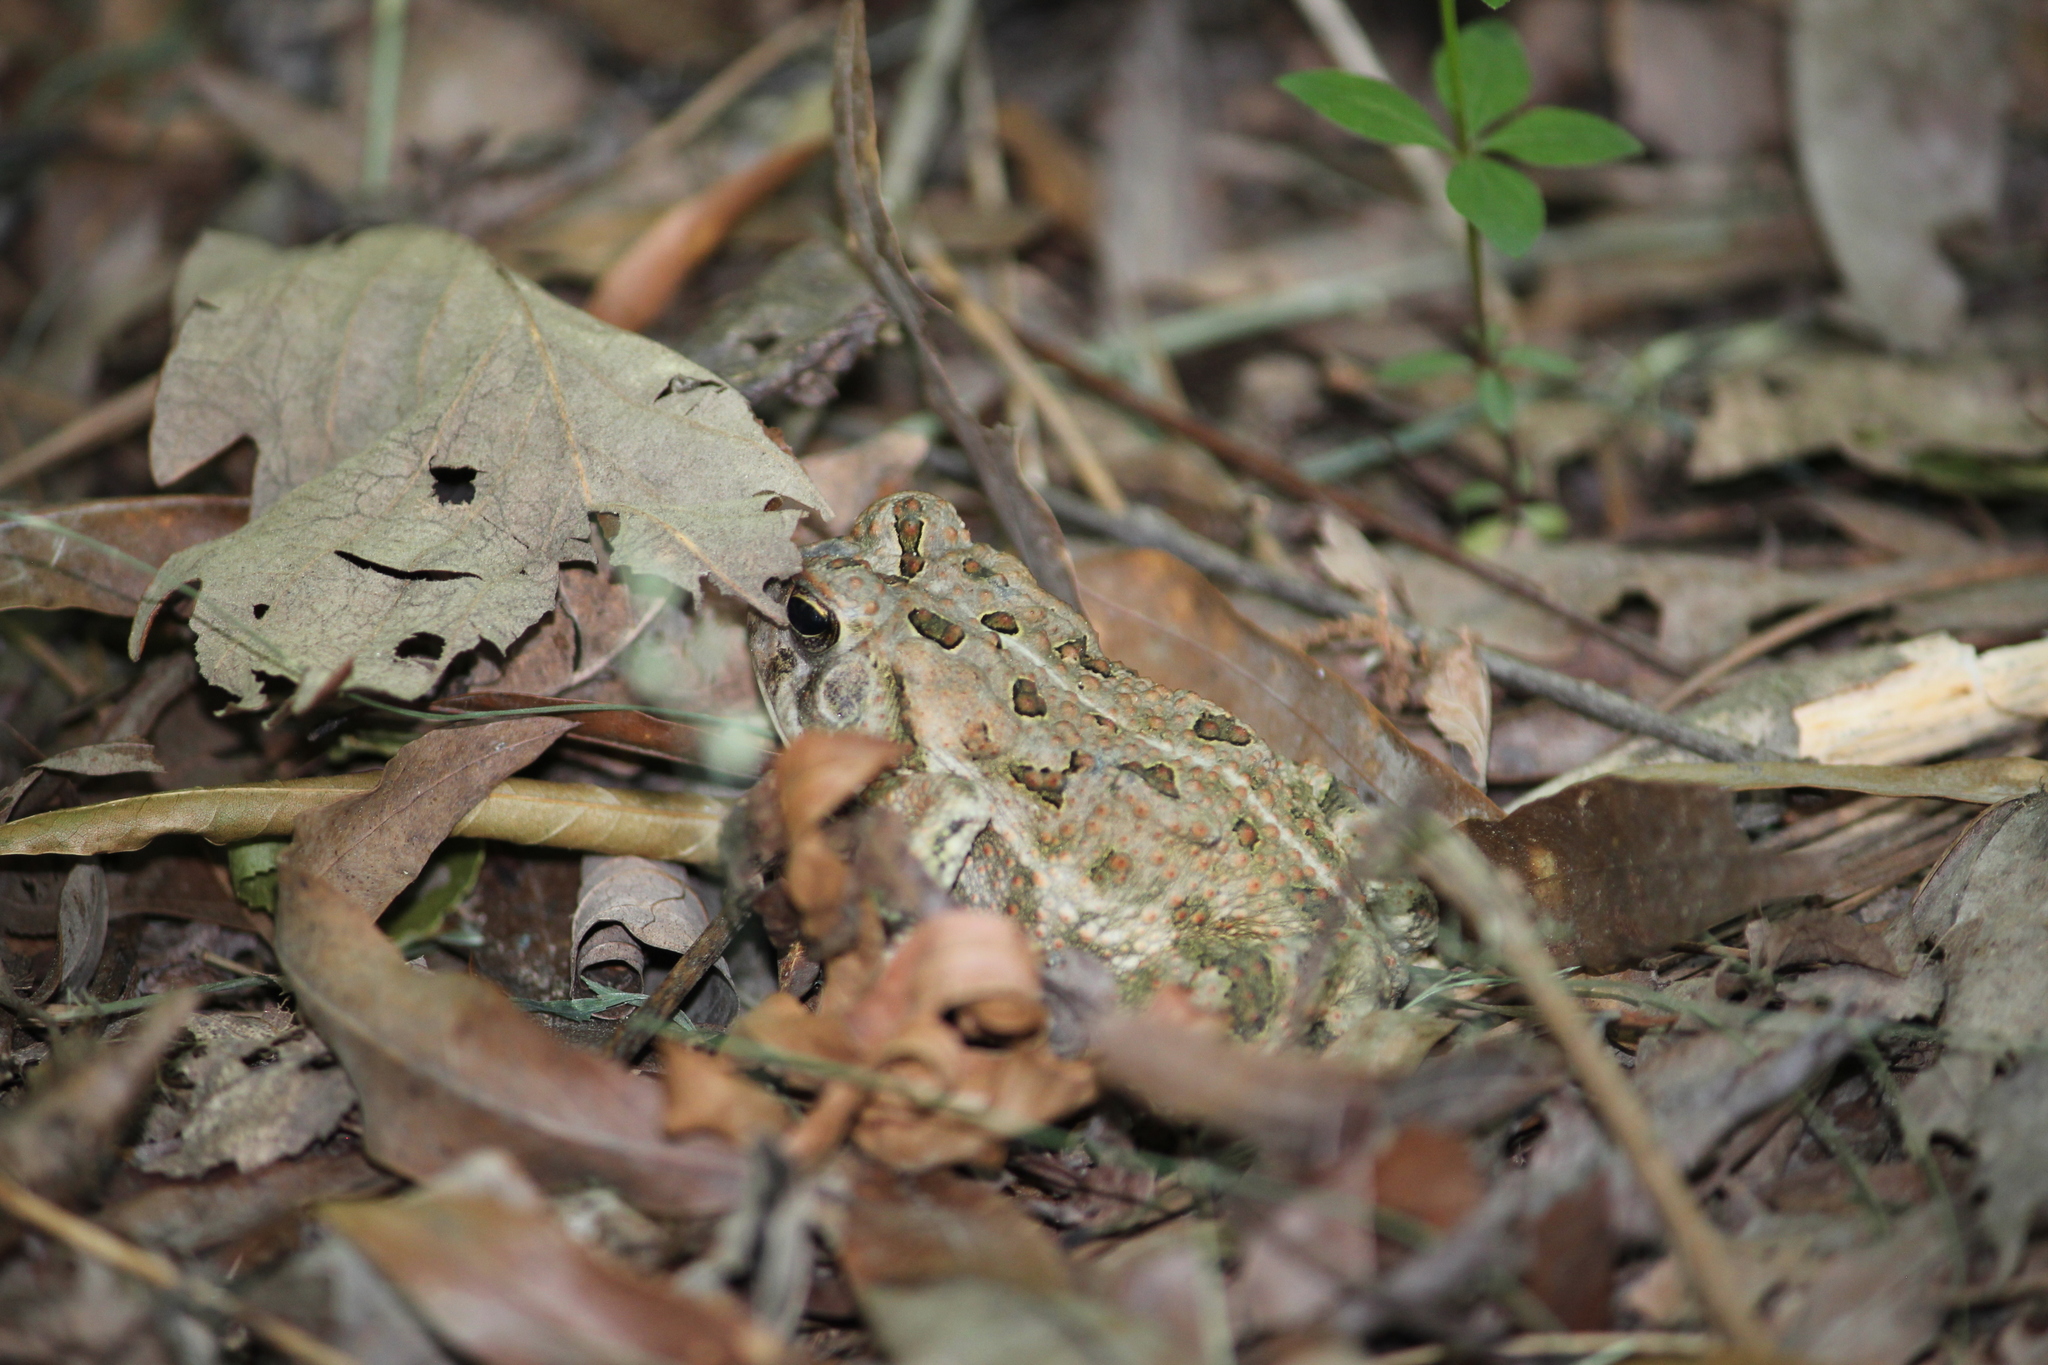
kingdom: Animalia
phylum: Chordata
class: Amphibia
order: Anura
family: Bufonidae
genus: Anaxyrus
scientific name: Anaxyrus fowleri
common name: Fowler's toad
